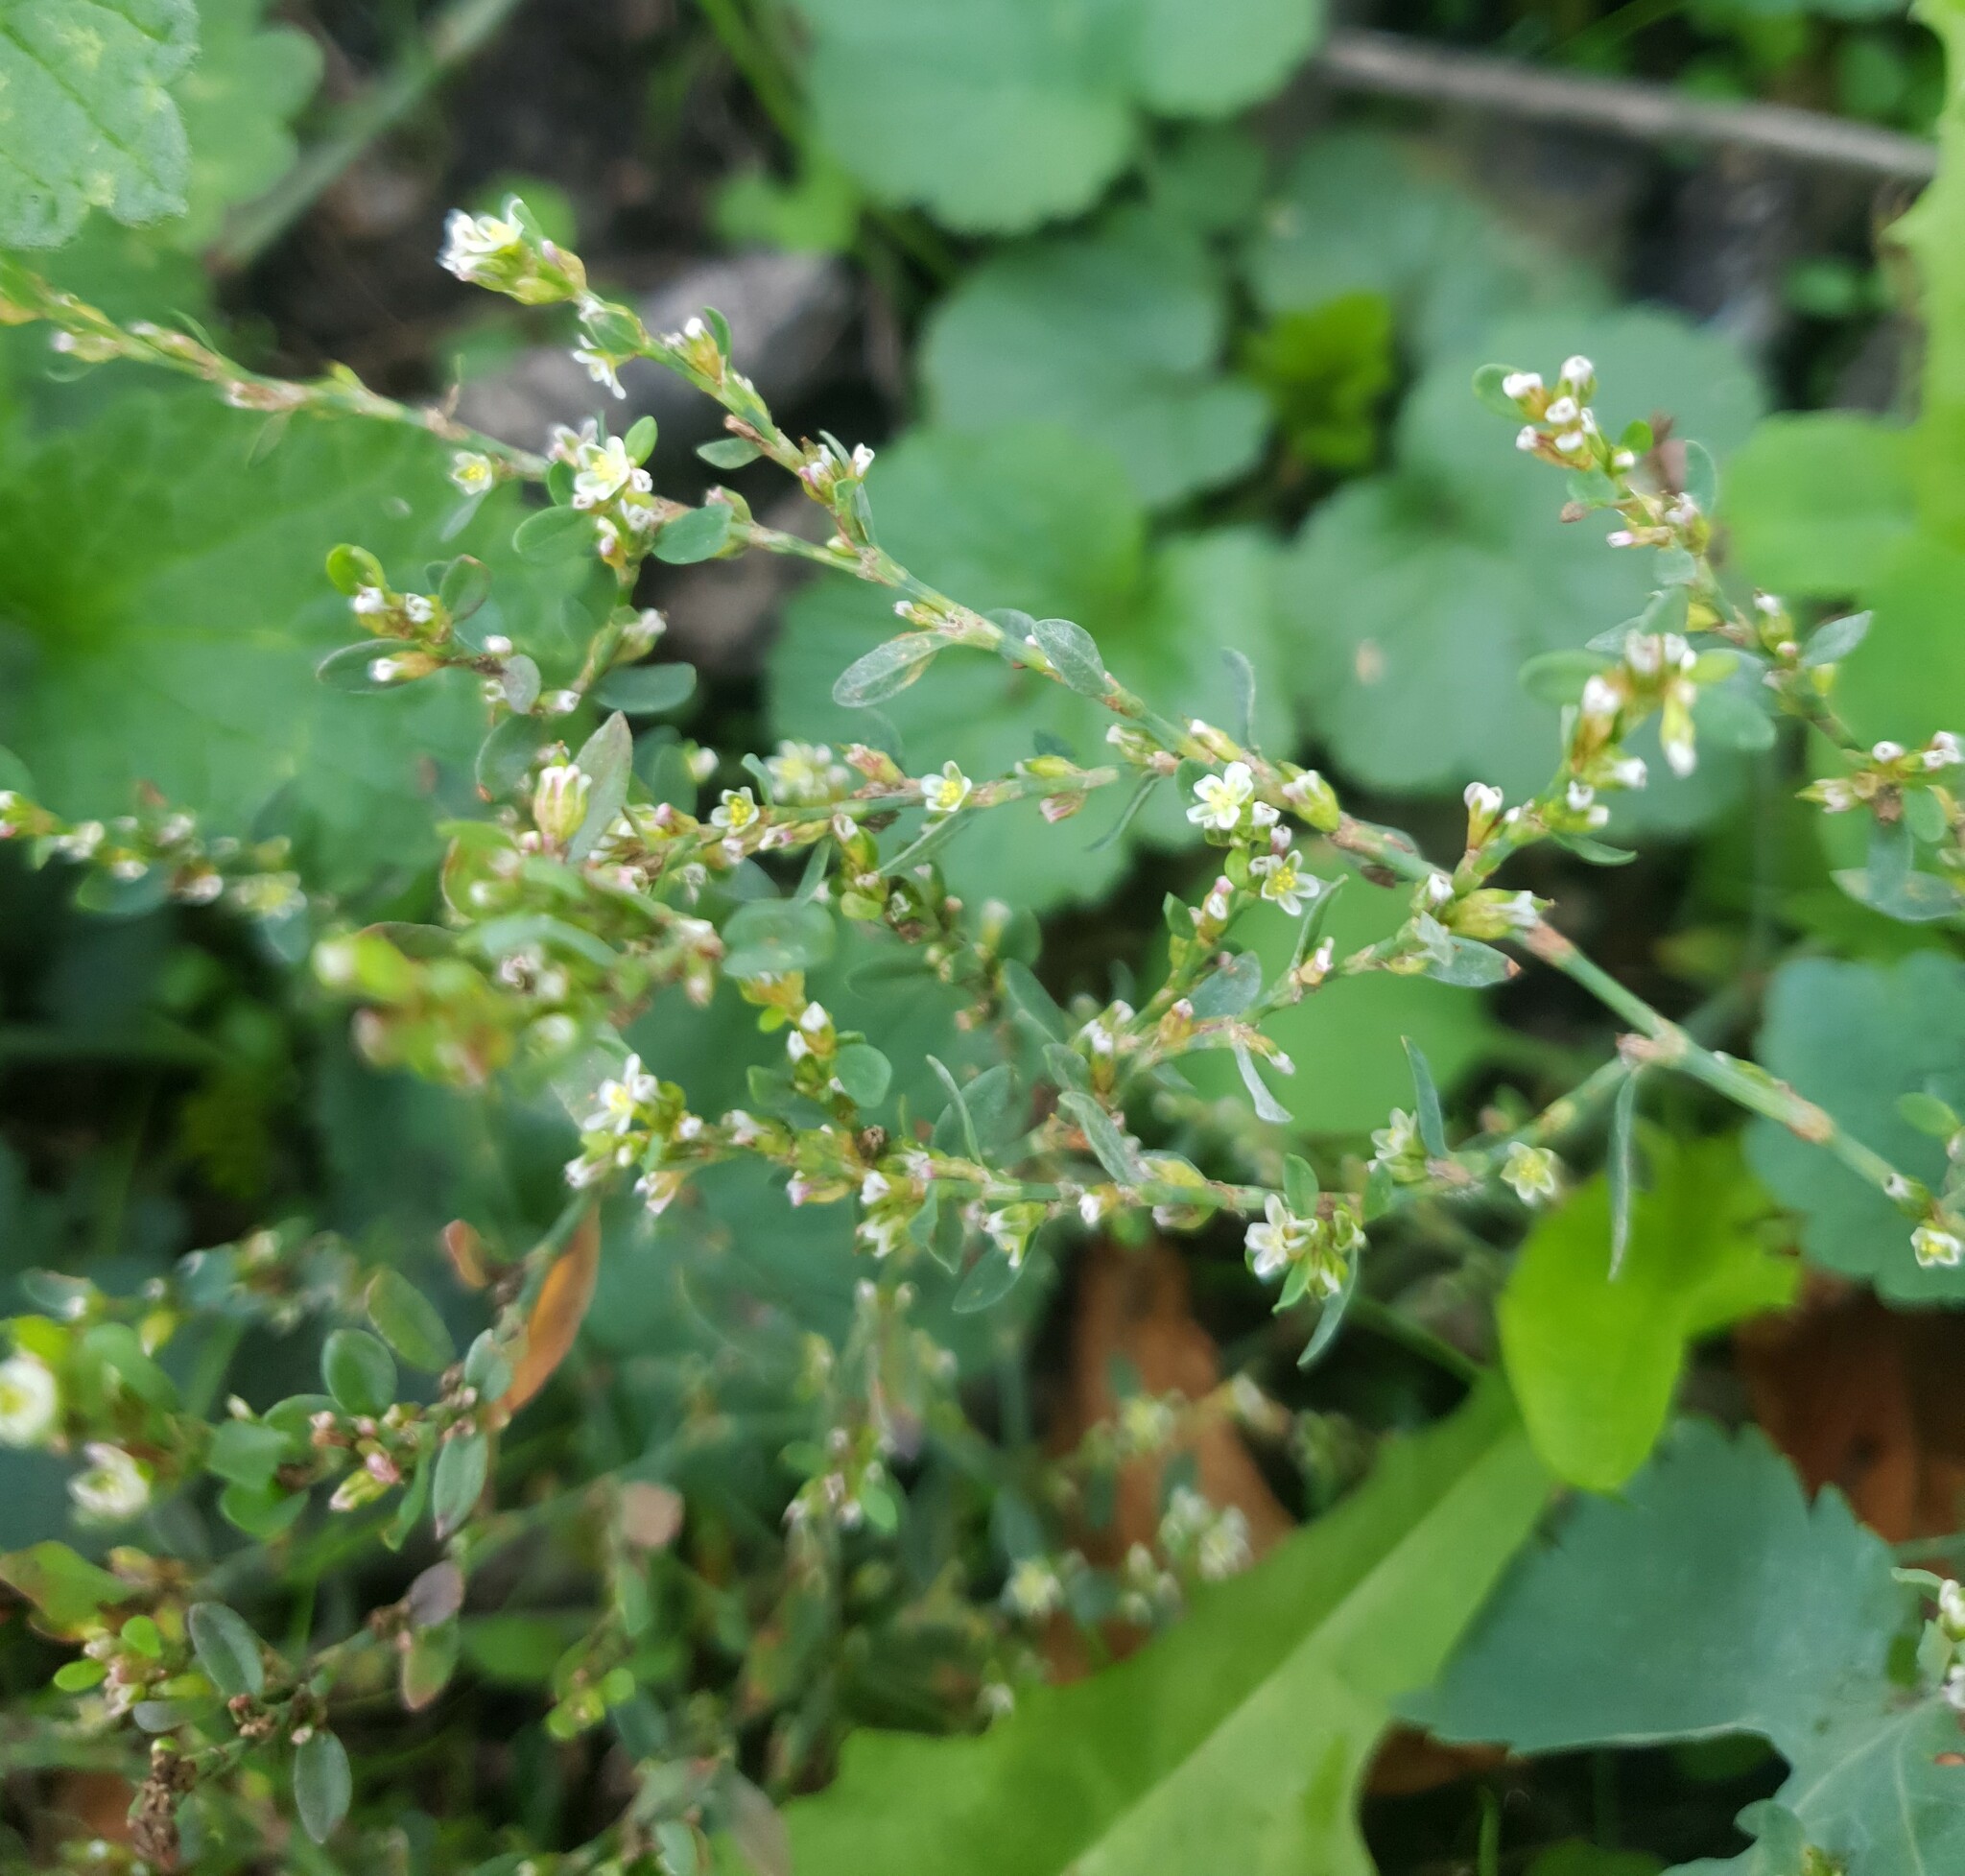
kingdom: Plantae
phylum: Tracheophyta
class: Magnoliopsida
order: Caryophyllales
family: Polygonaceae
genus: Polygonum
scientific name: Polygonum aviculare
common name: Prostrate knotweed
